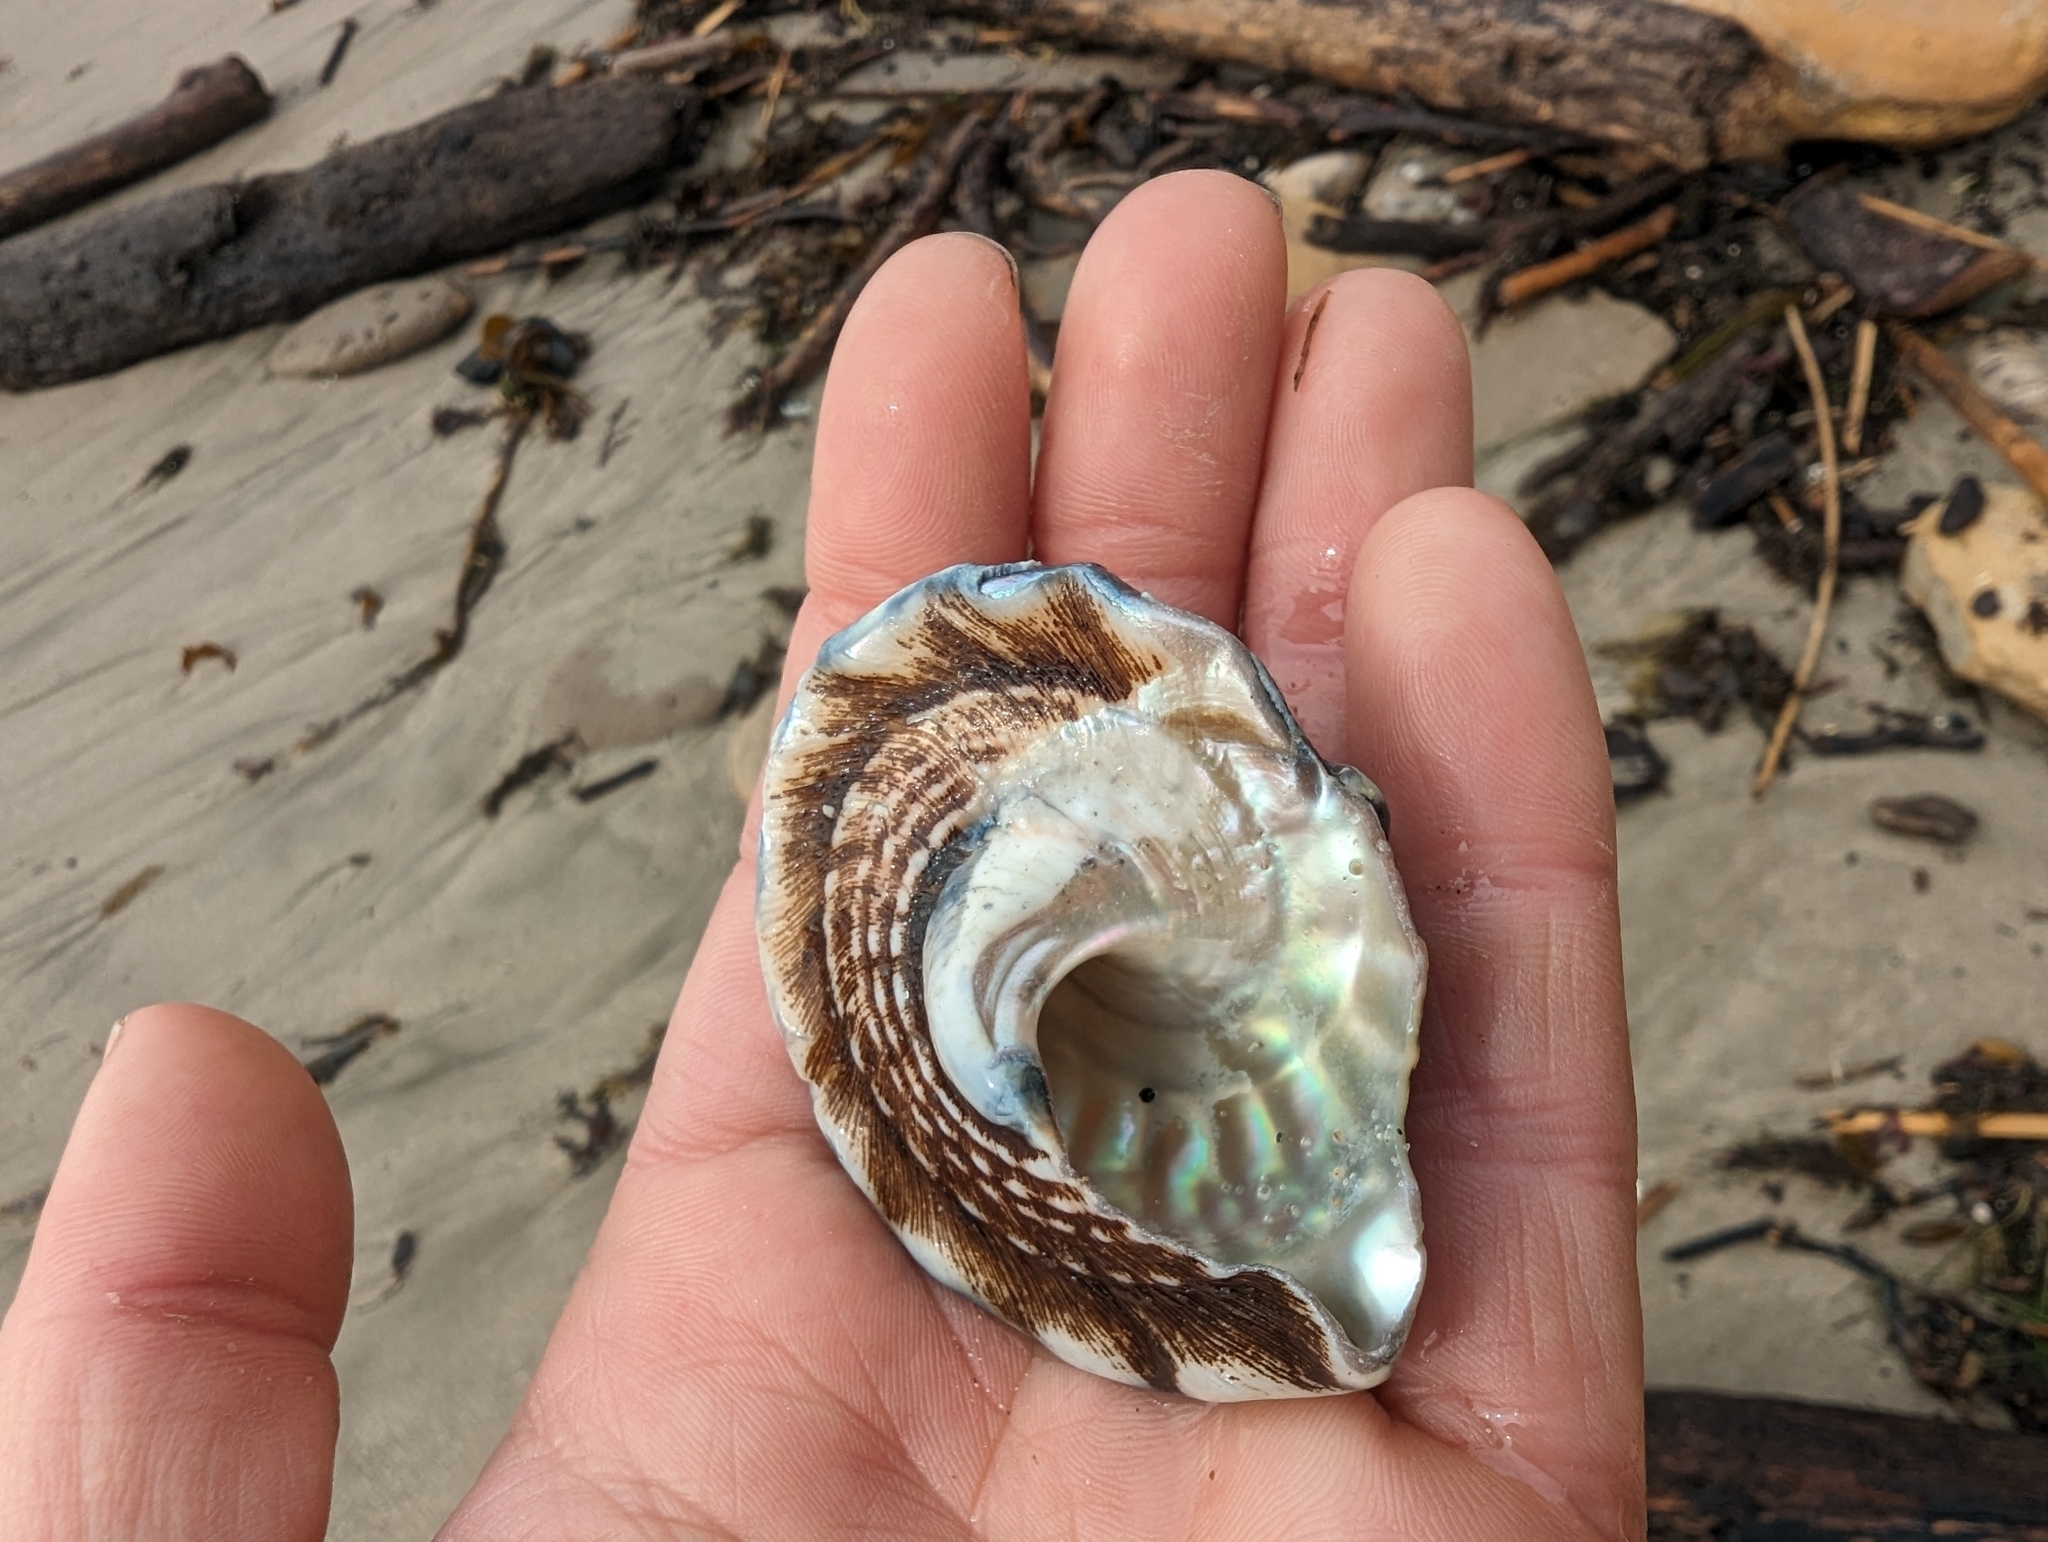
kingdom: Animalia
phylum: Mollusca
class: Gastropoda
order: Trochida
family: Turbinidae
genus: Megastraea
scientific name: Megastraea undosa
